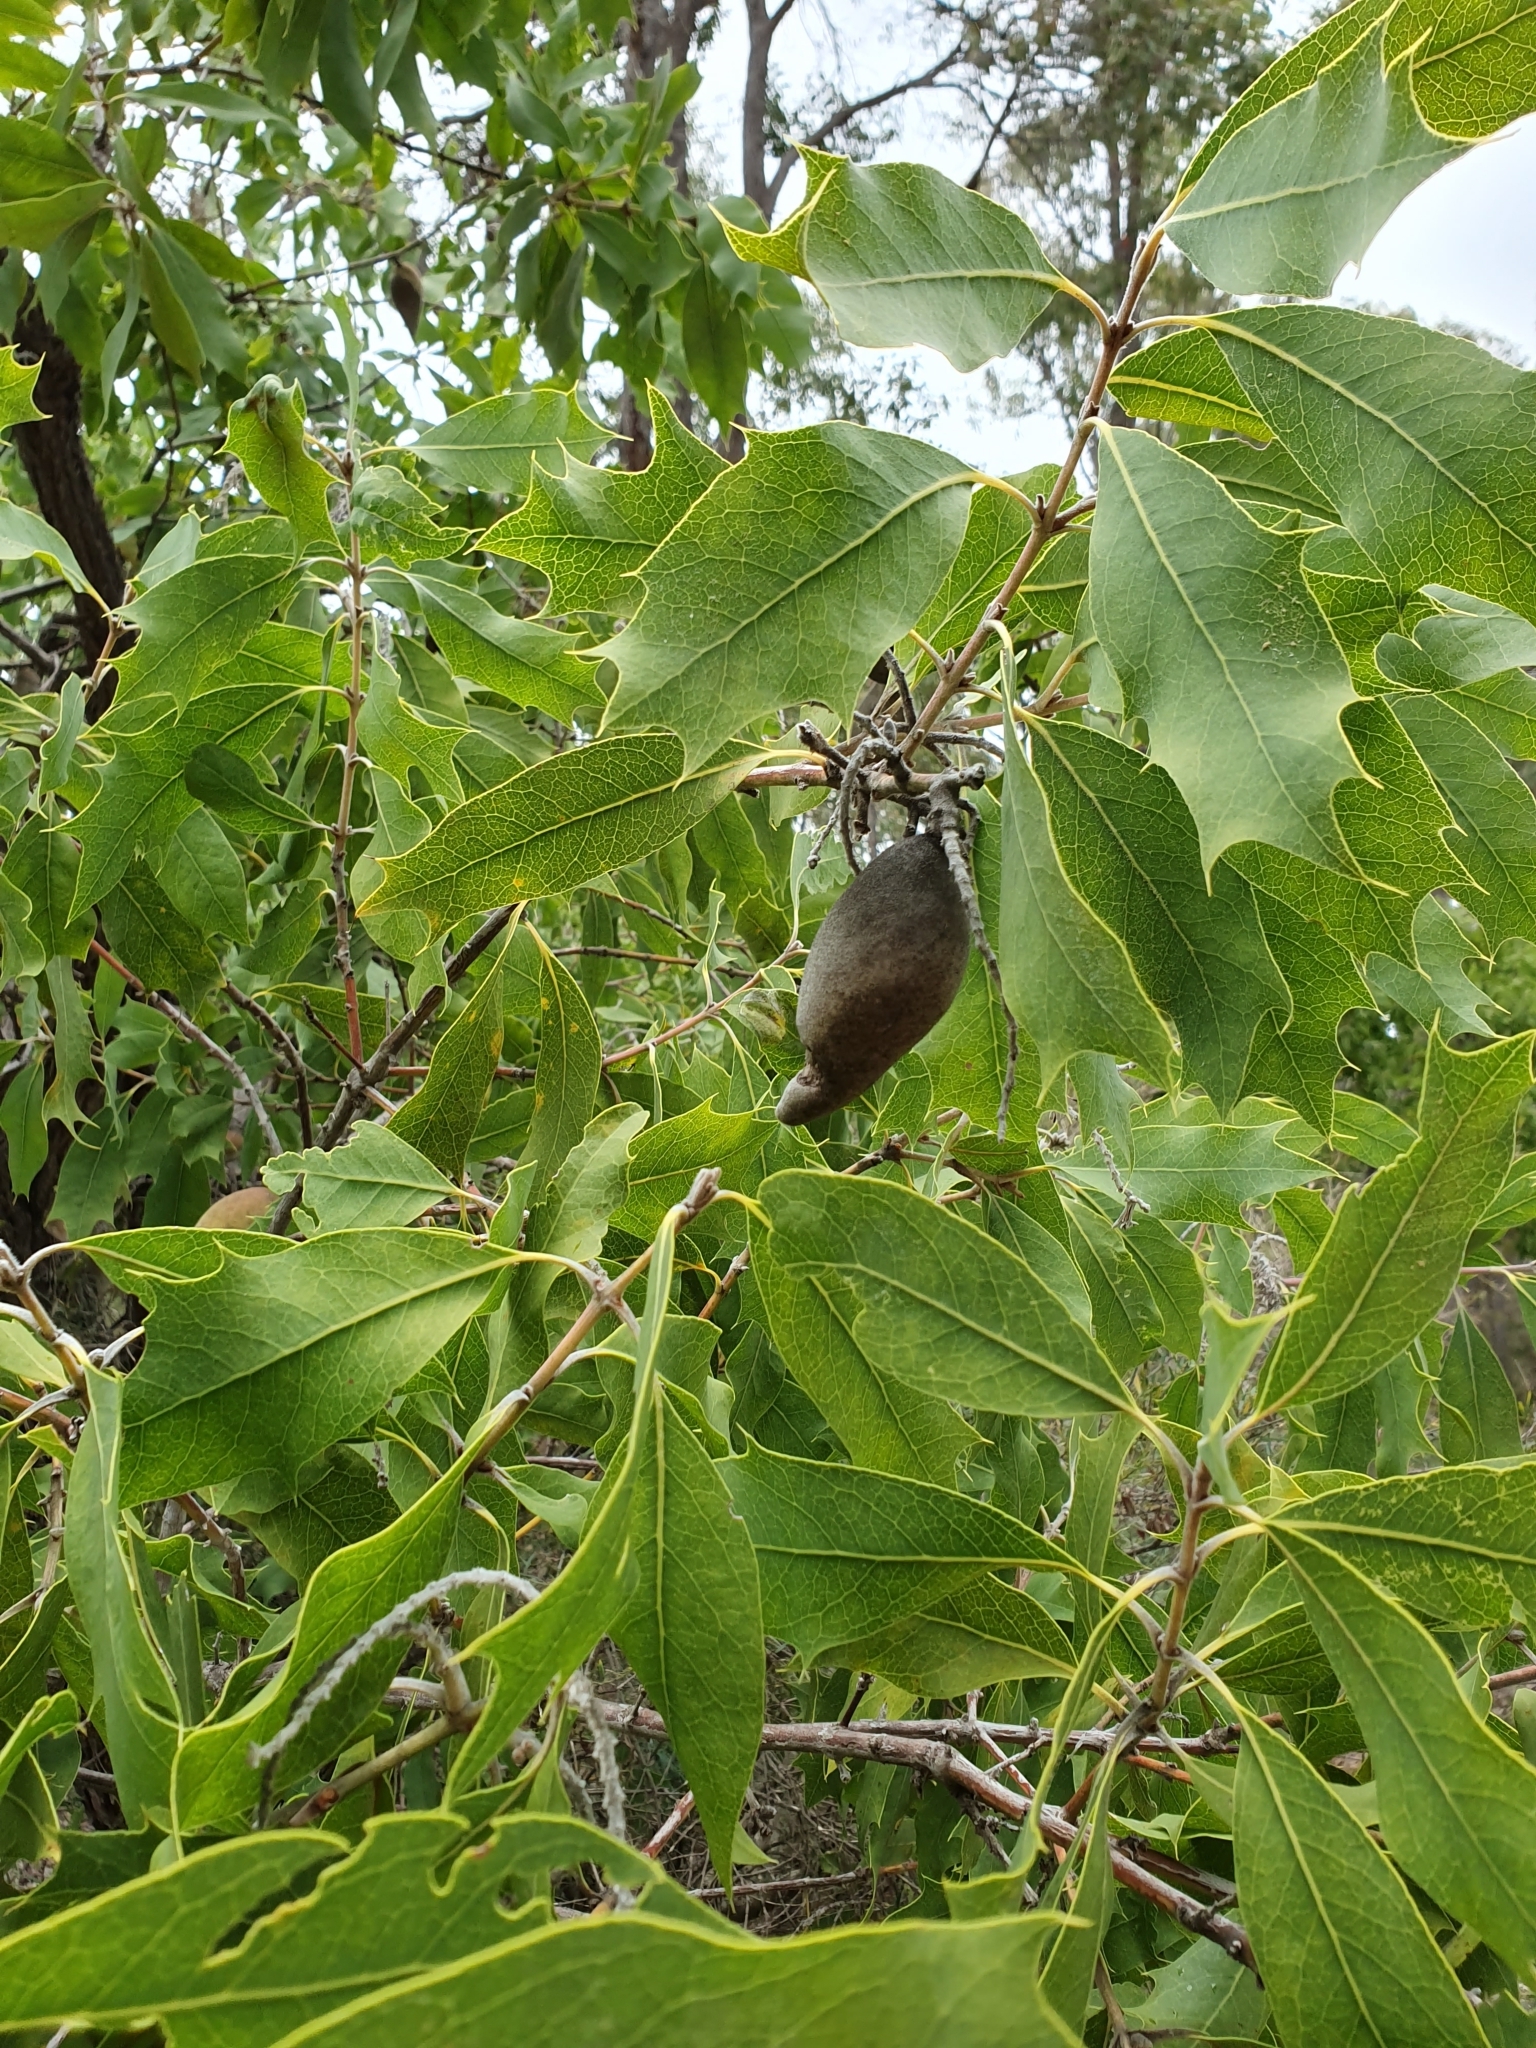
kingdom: Plantae
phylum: Tracheophyta
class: Magnoliopsida
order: Proteales
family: Proteaceae
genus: Xylomelum
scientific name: Xylomelum occidentale
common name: Western woody-pear
